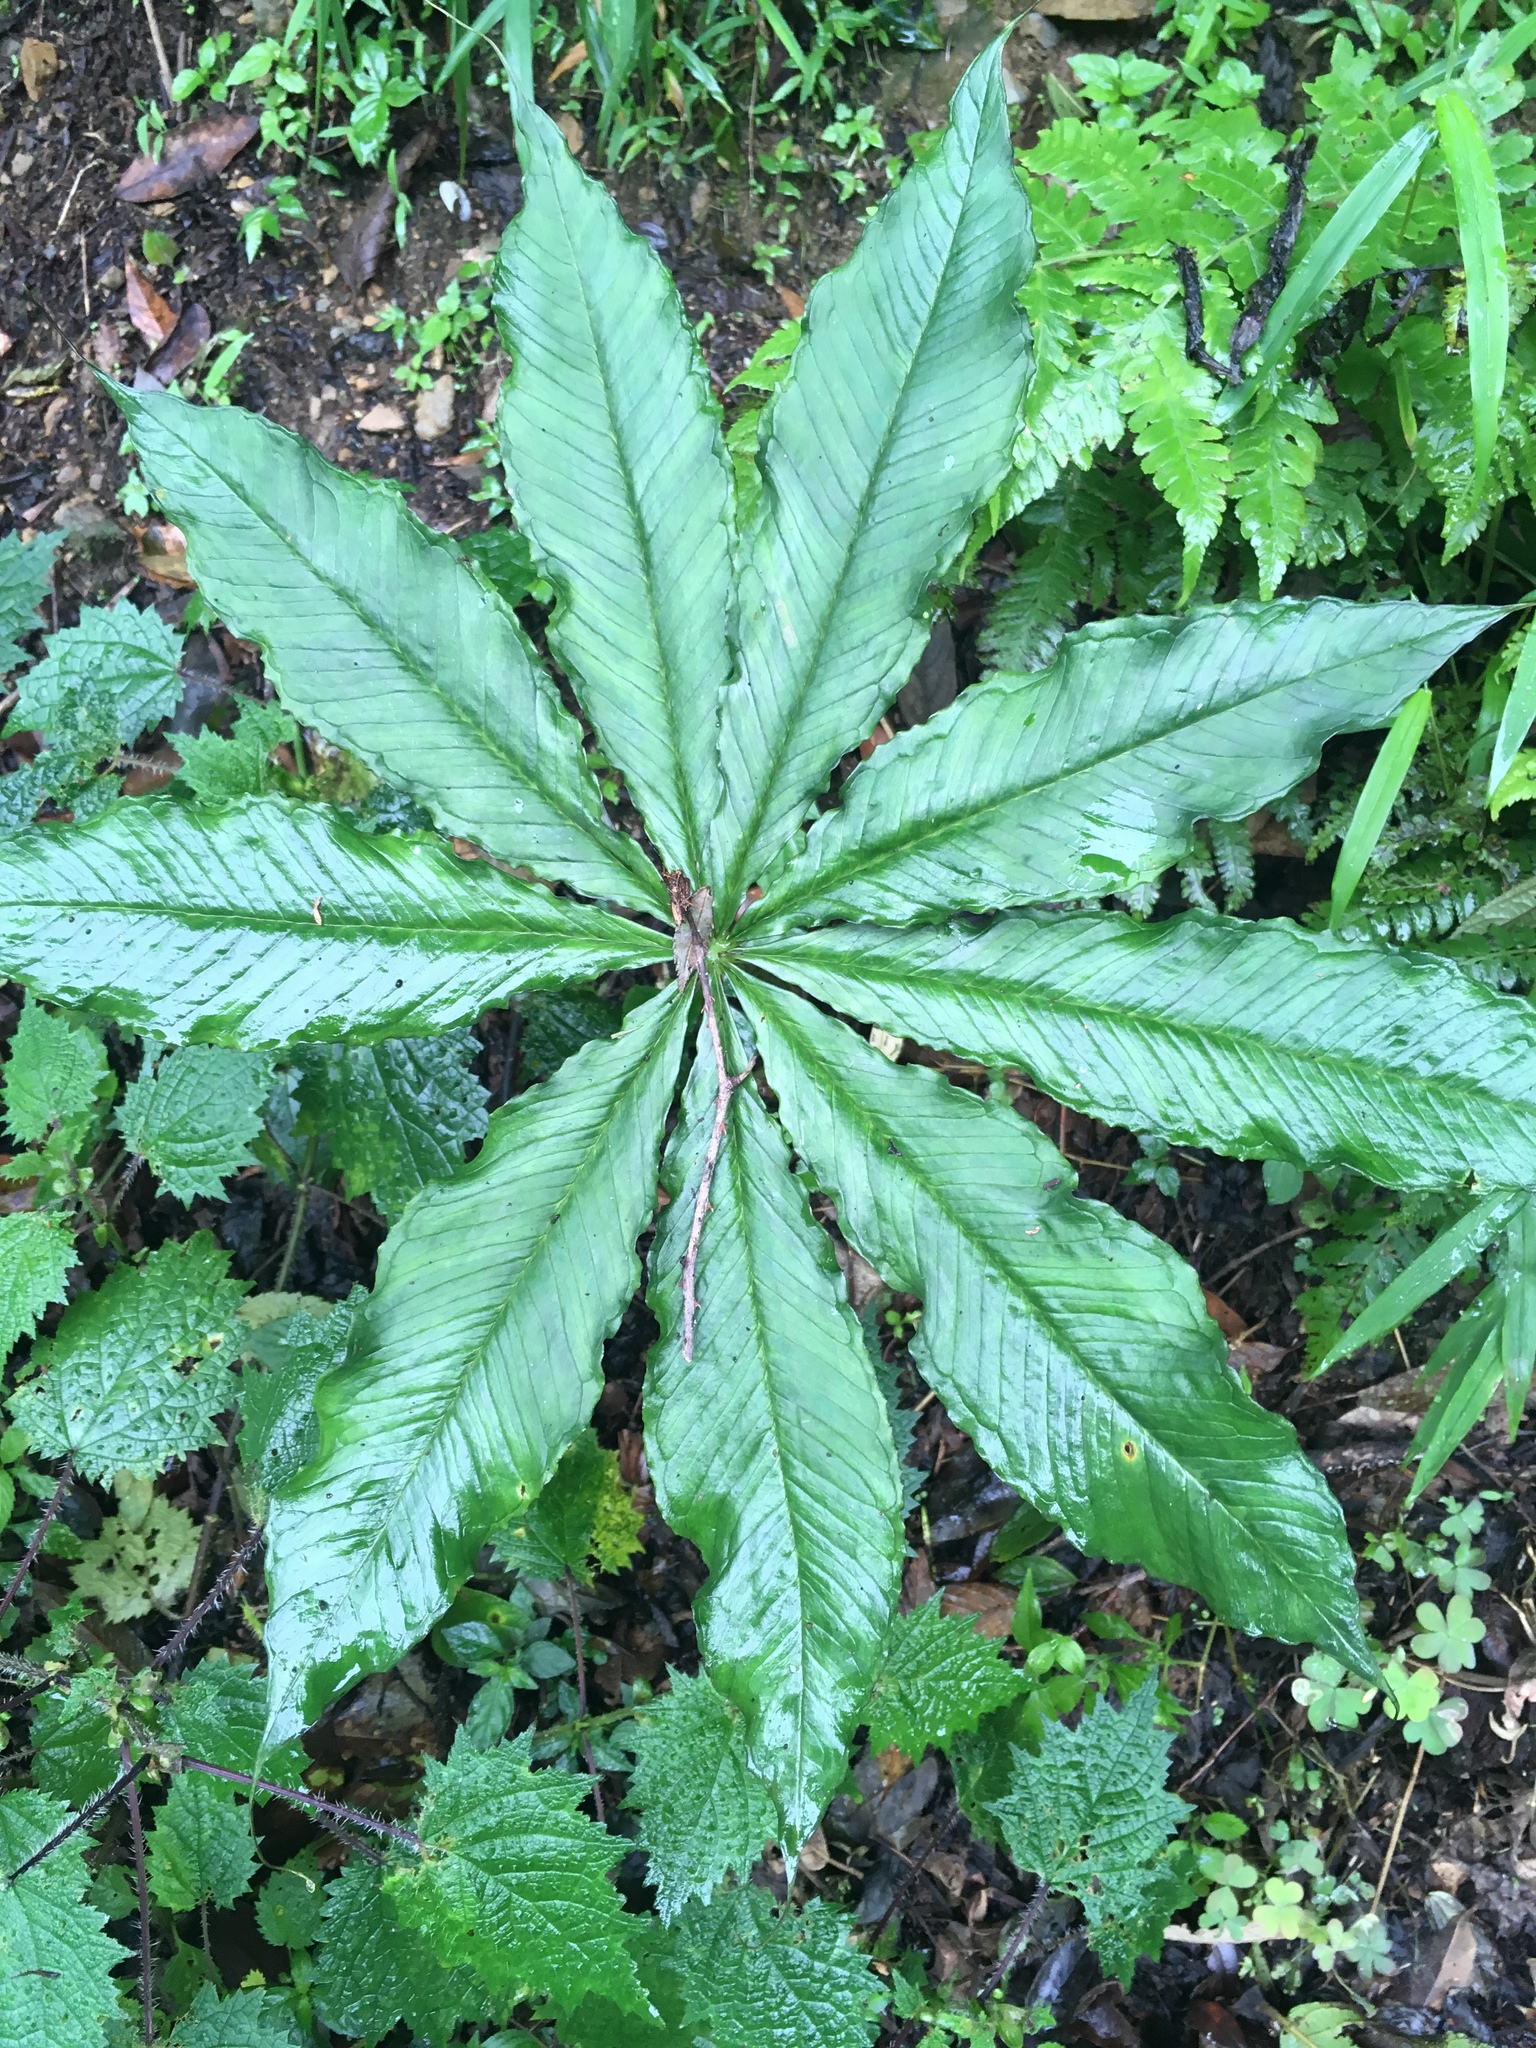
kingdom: Plantae
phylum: Tracheophyta
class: Liliopsida
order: Alismatales
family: Araceae
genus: Arisaema
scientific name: Arisaema taiwanense
